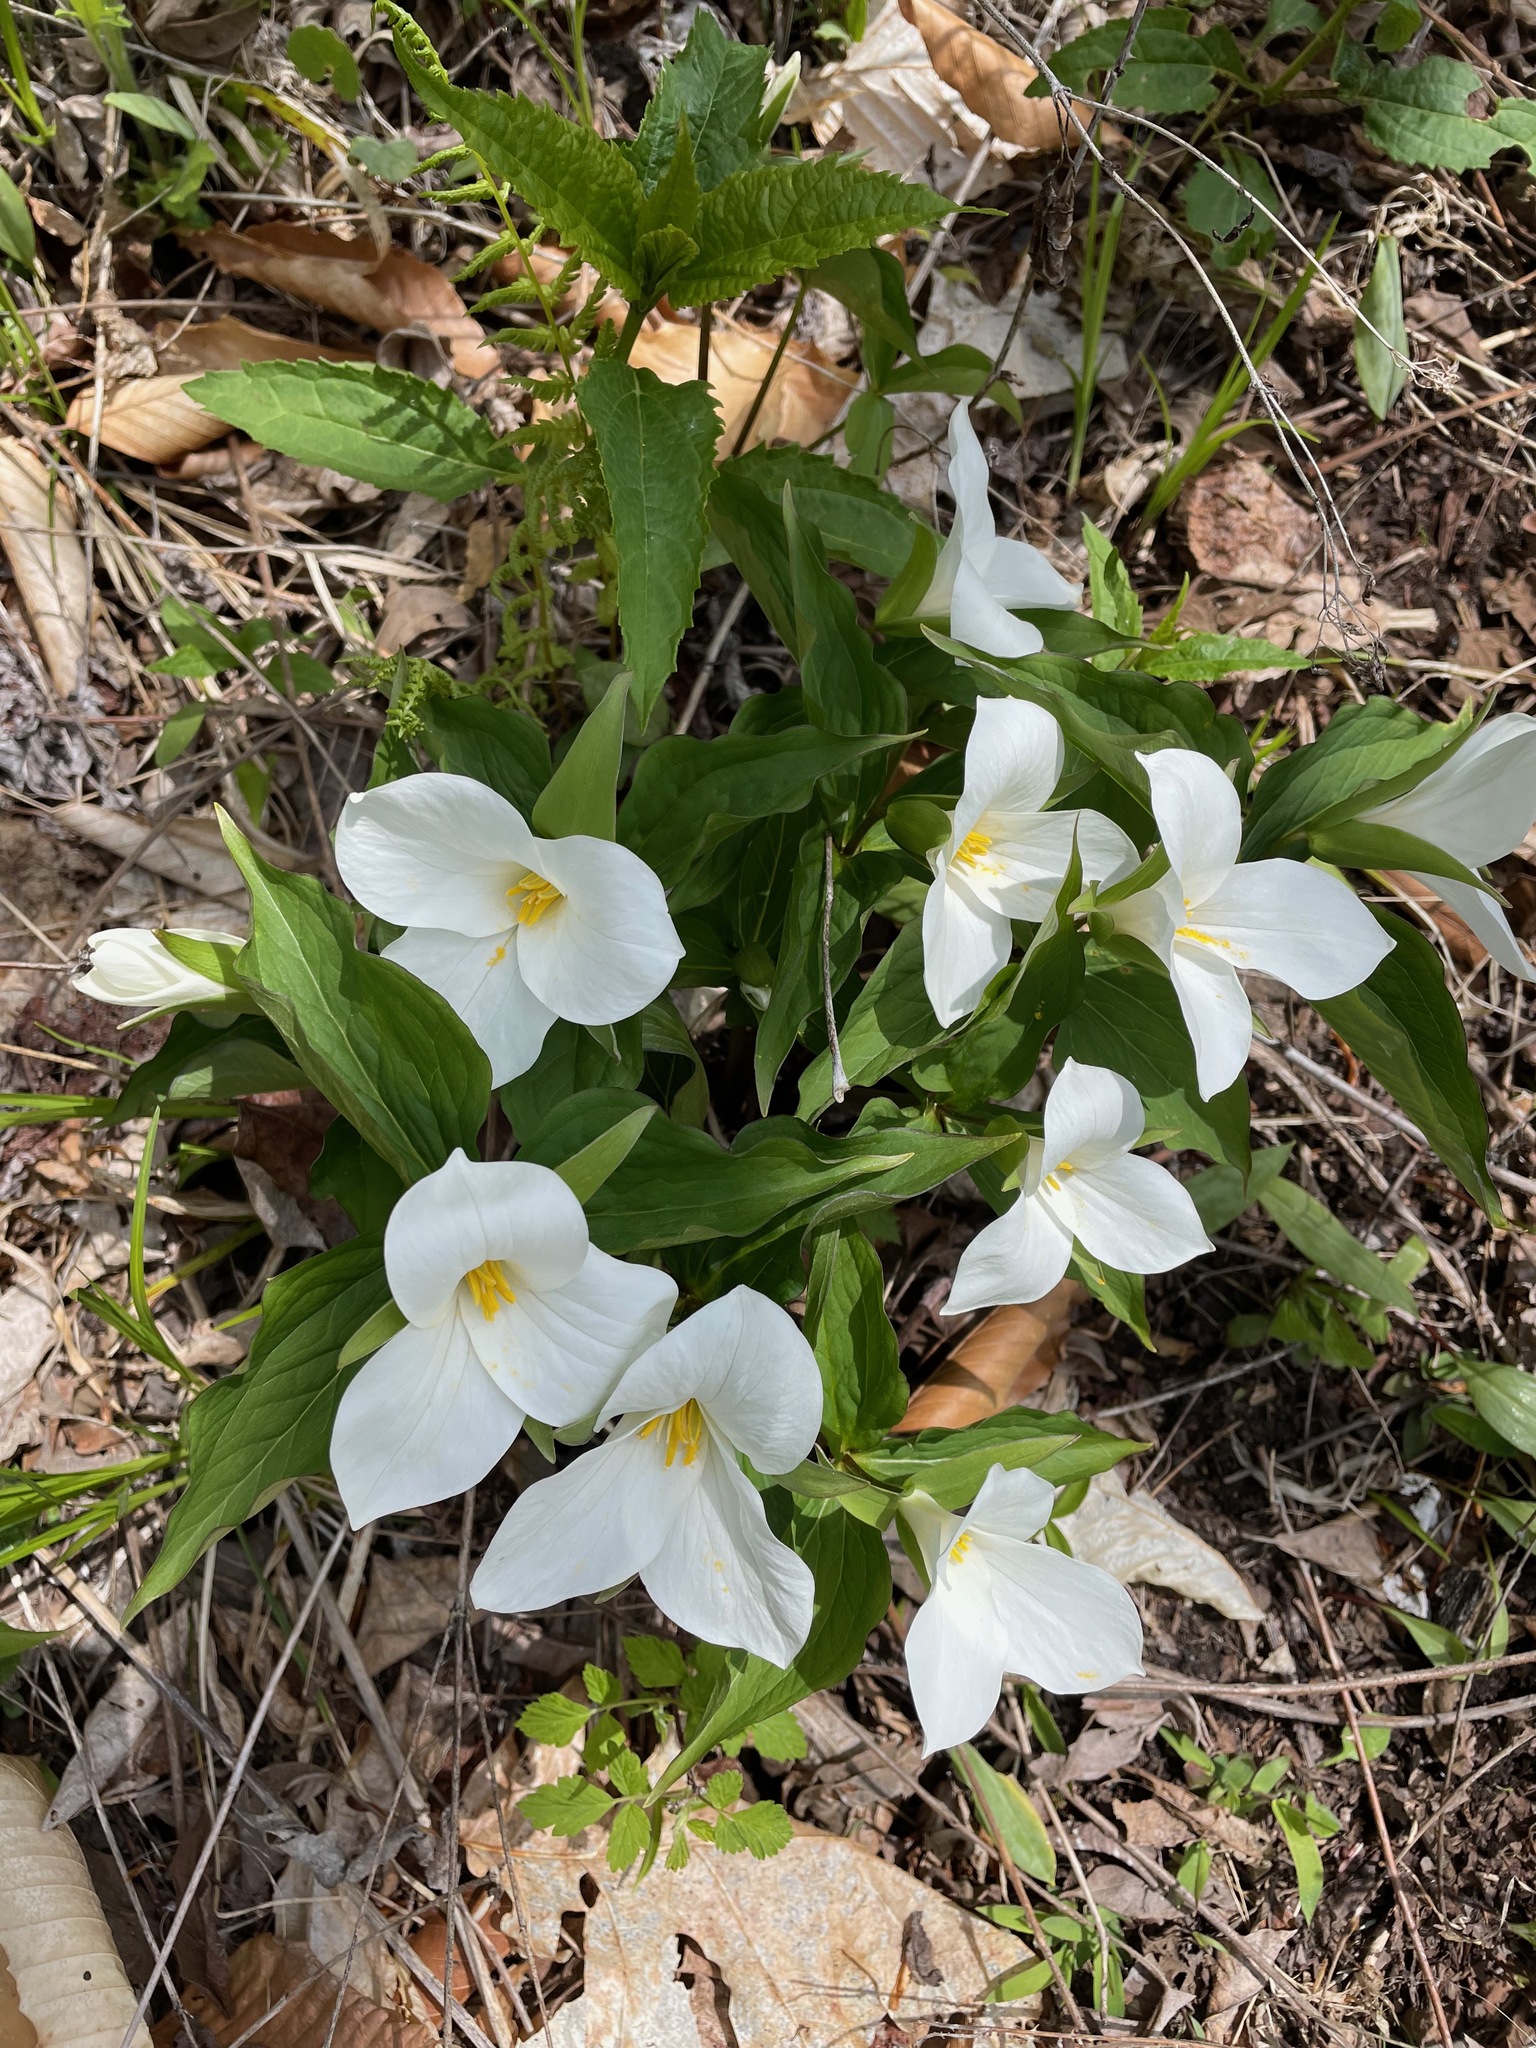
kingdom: Plantae
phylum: Tracheophyta
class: Liliopsida
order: Liliales
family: Melanthiaceae
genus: Trillium
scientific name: Trillium grandiflorum
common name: Great white trillium
